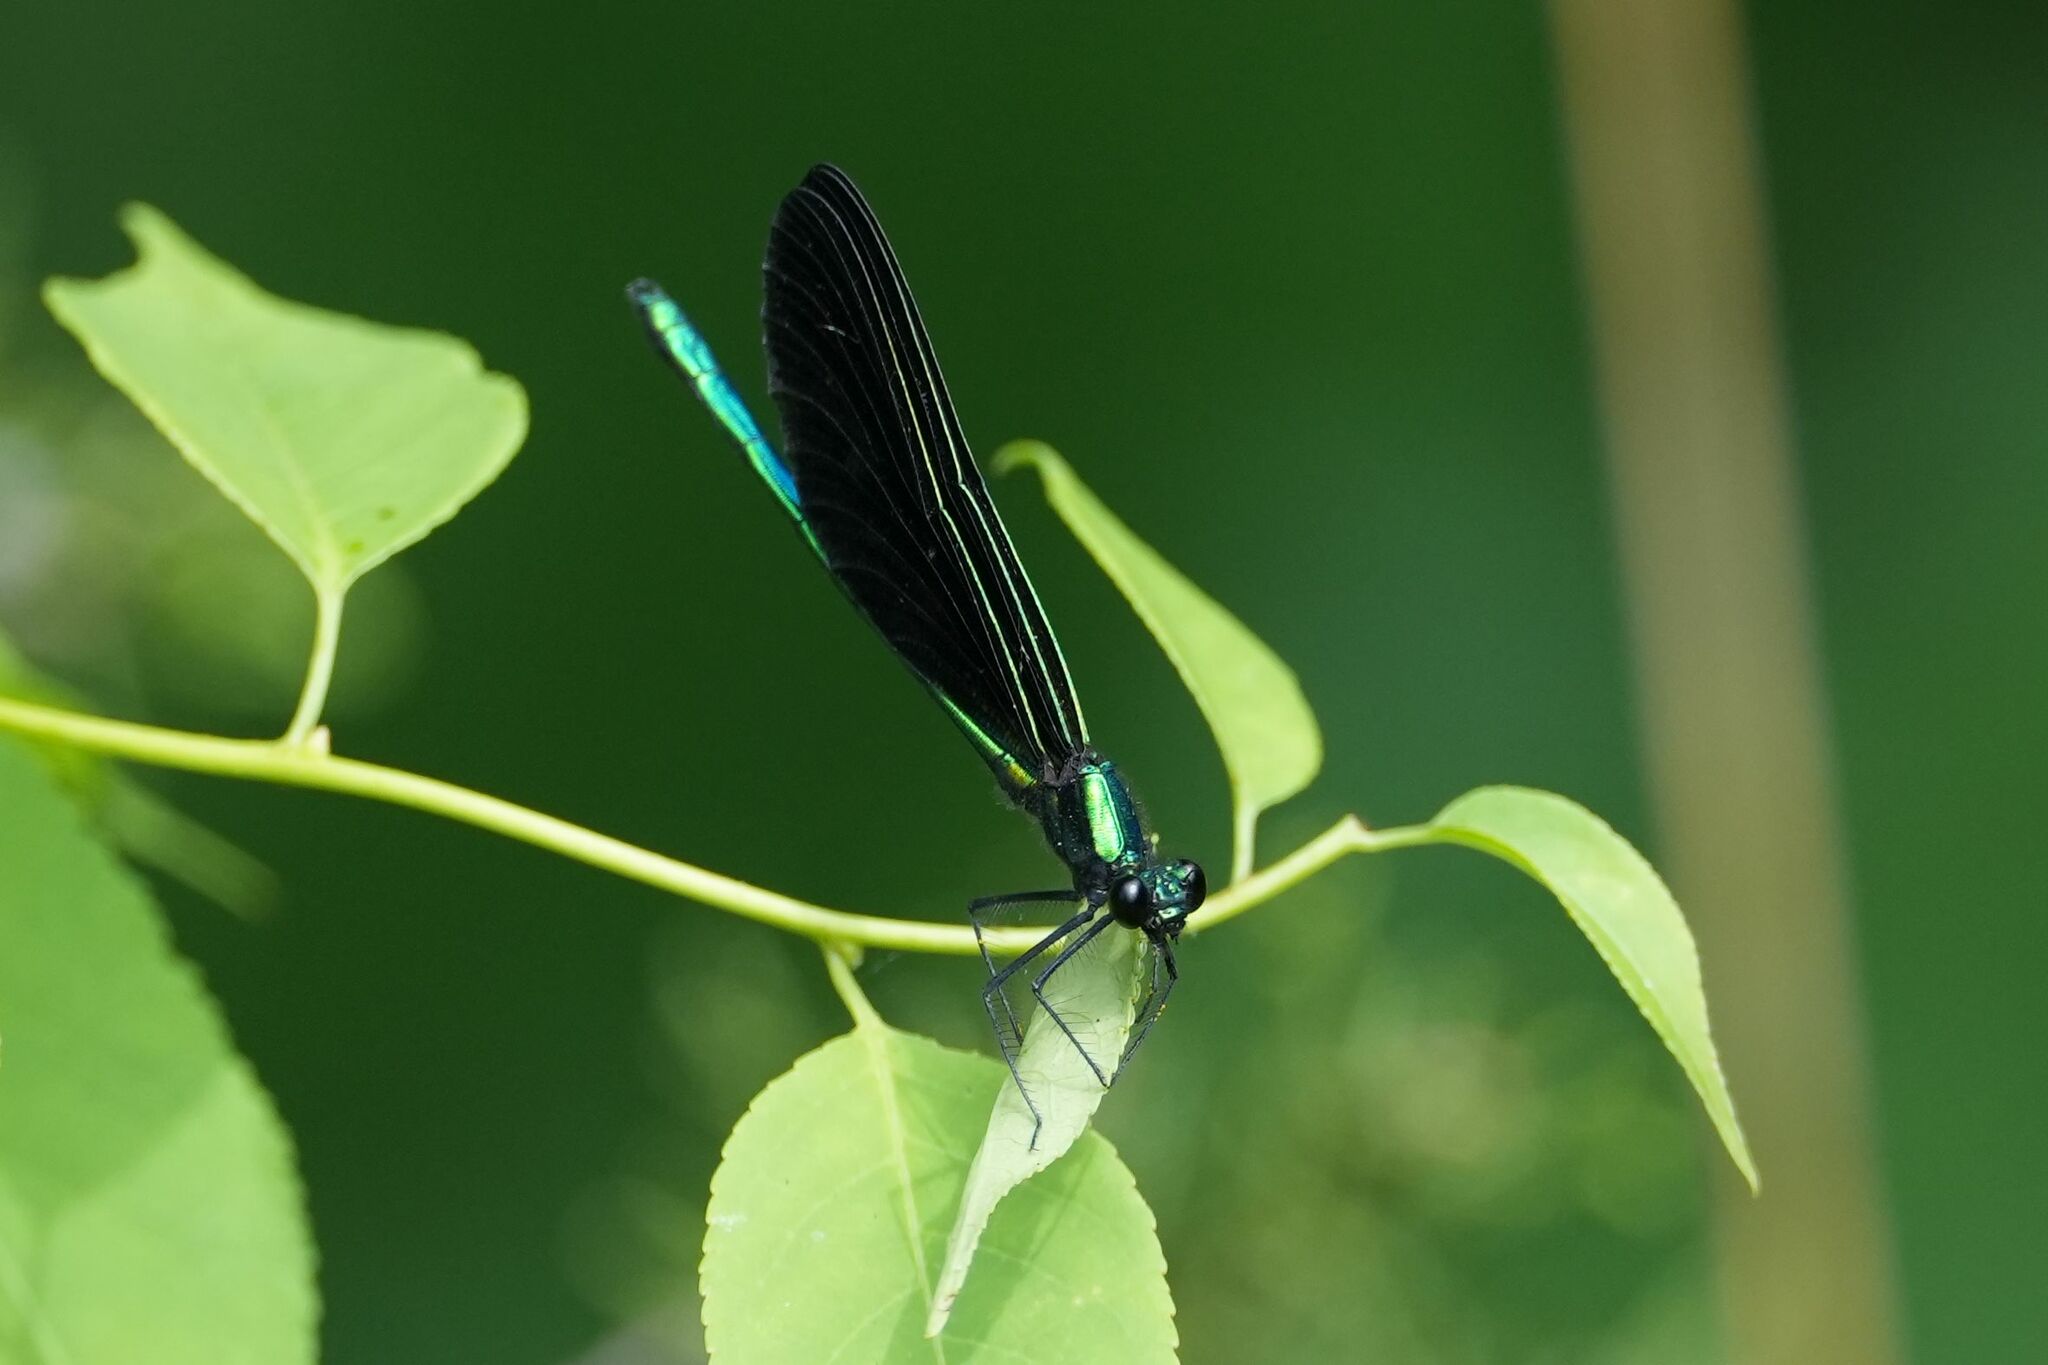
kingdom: Animalia
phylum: Arthropoda
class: Insecta
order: Odonata
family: Calopterygidae
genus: Calopteryx
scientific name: Calopteryx maculata
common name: Ebony jewelwing
